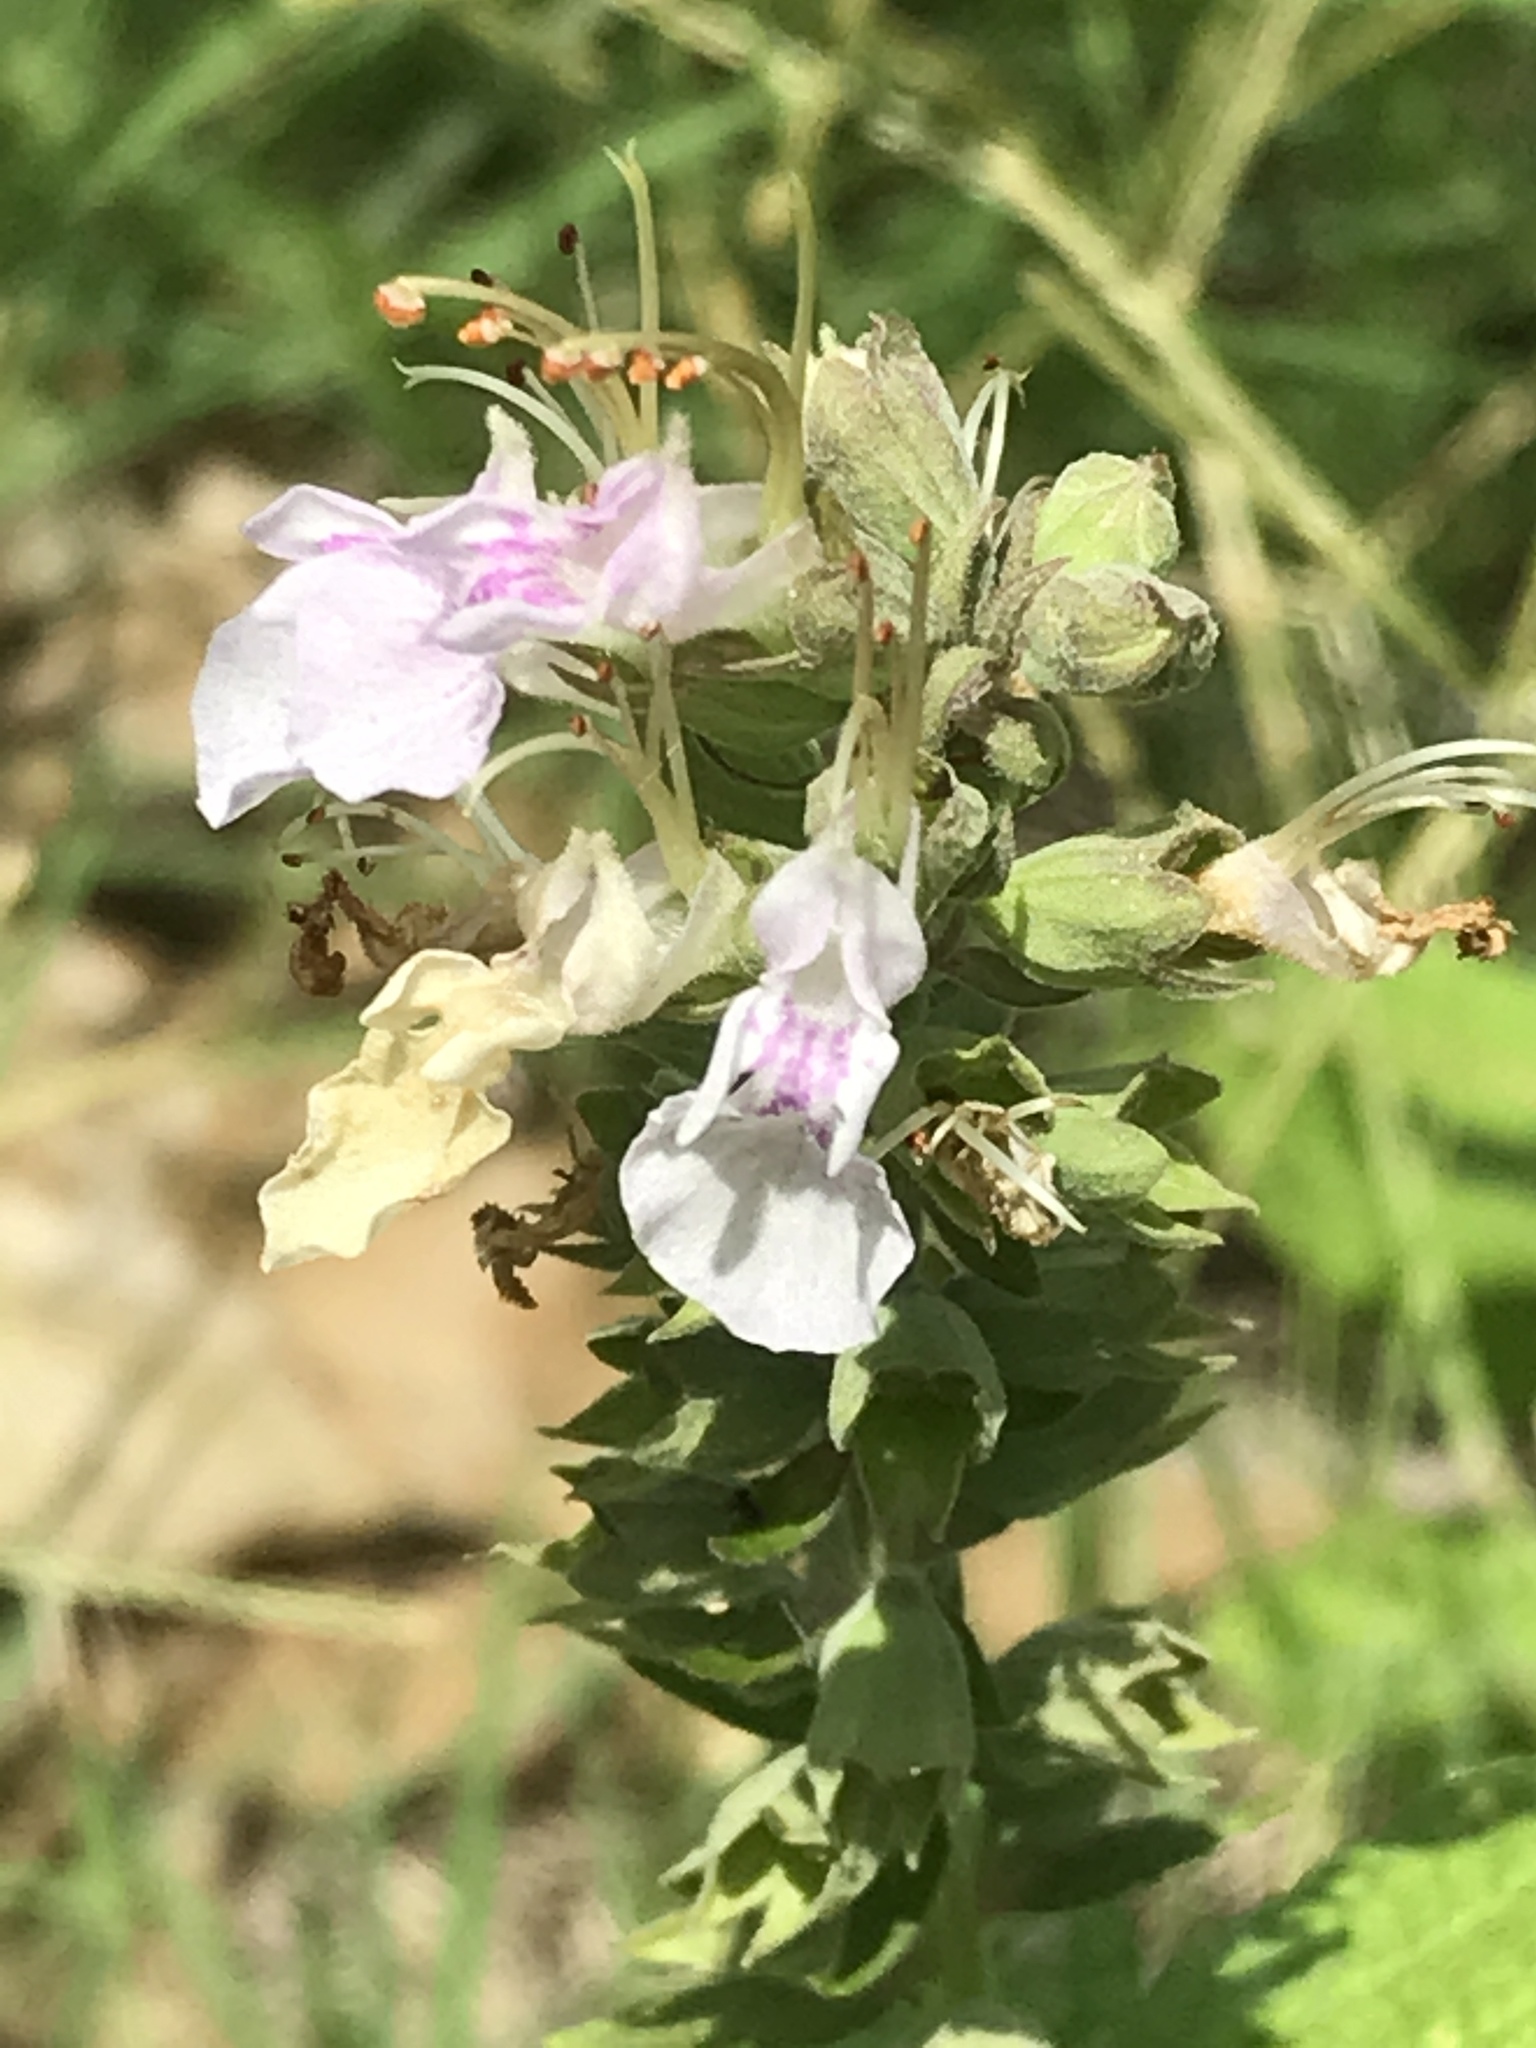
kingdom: Plantae
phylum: Tracheophyta
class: Magnoliopsida
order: Lamiales
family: Lamiaceae
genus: Teucrium
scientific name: Teucrium canadense
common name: American germander
